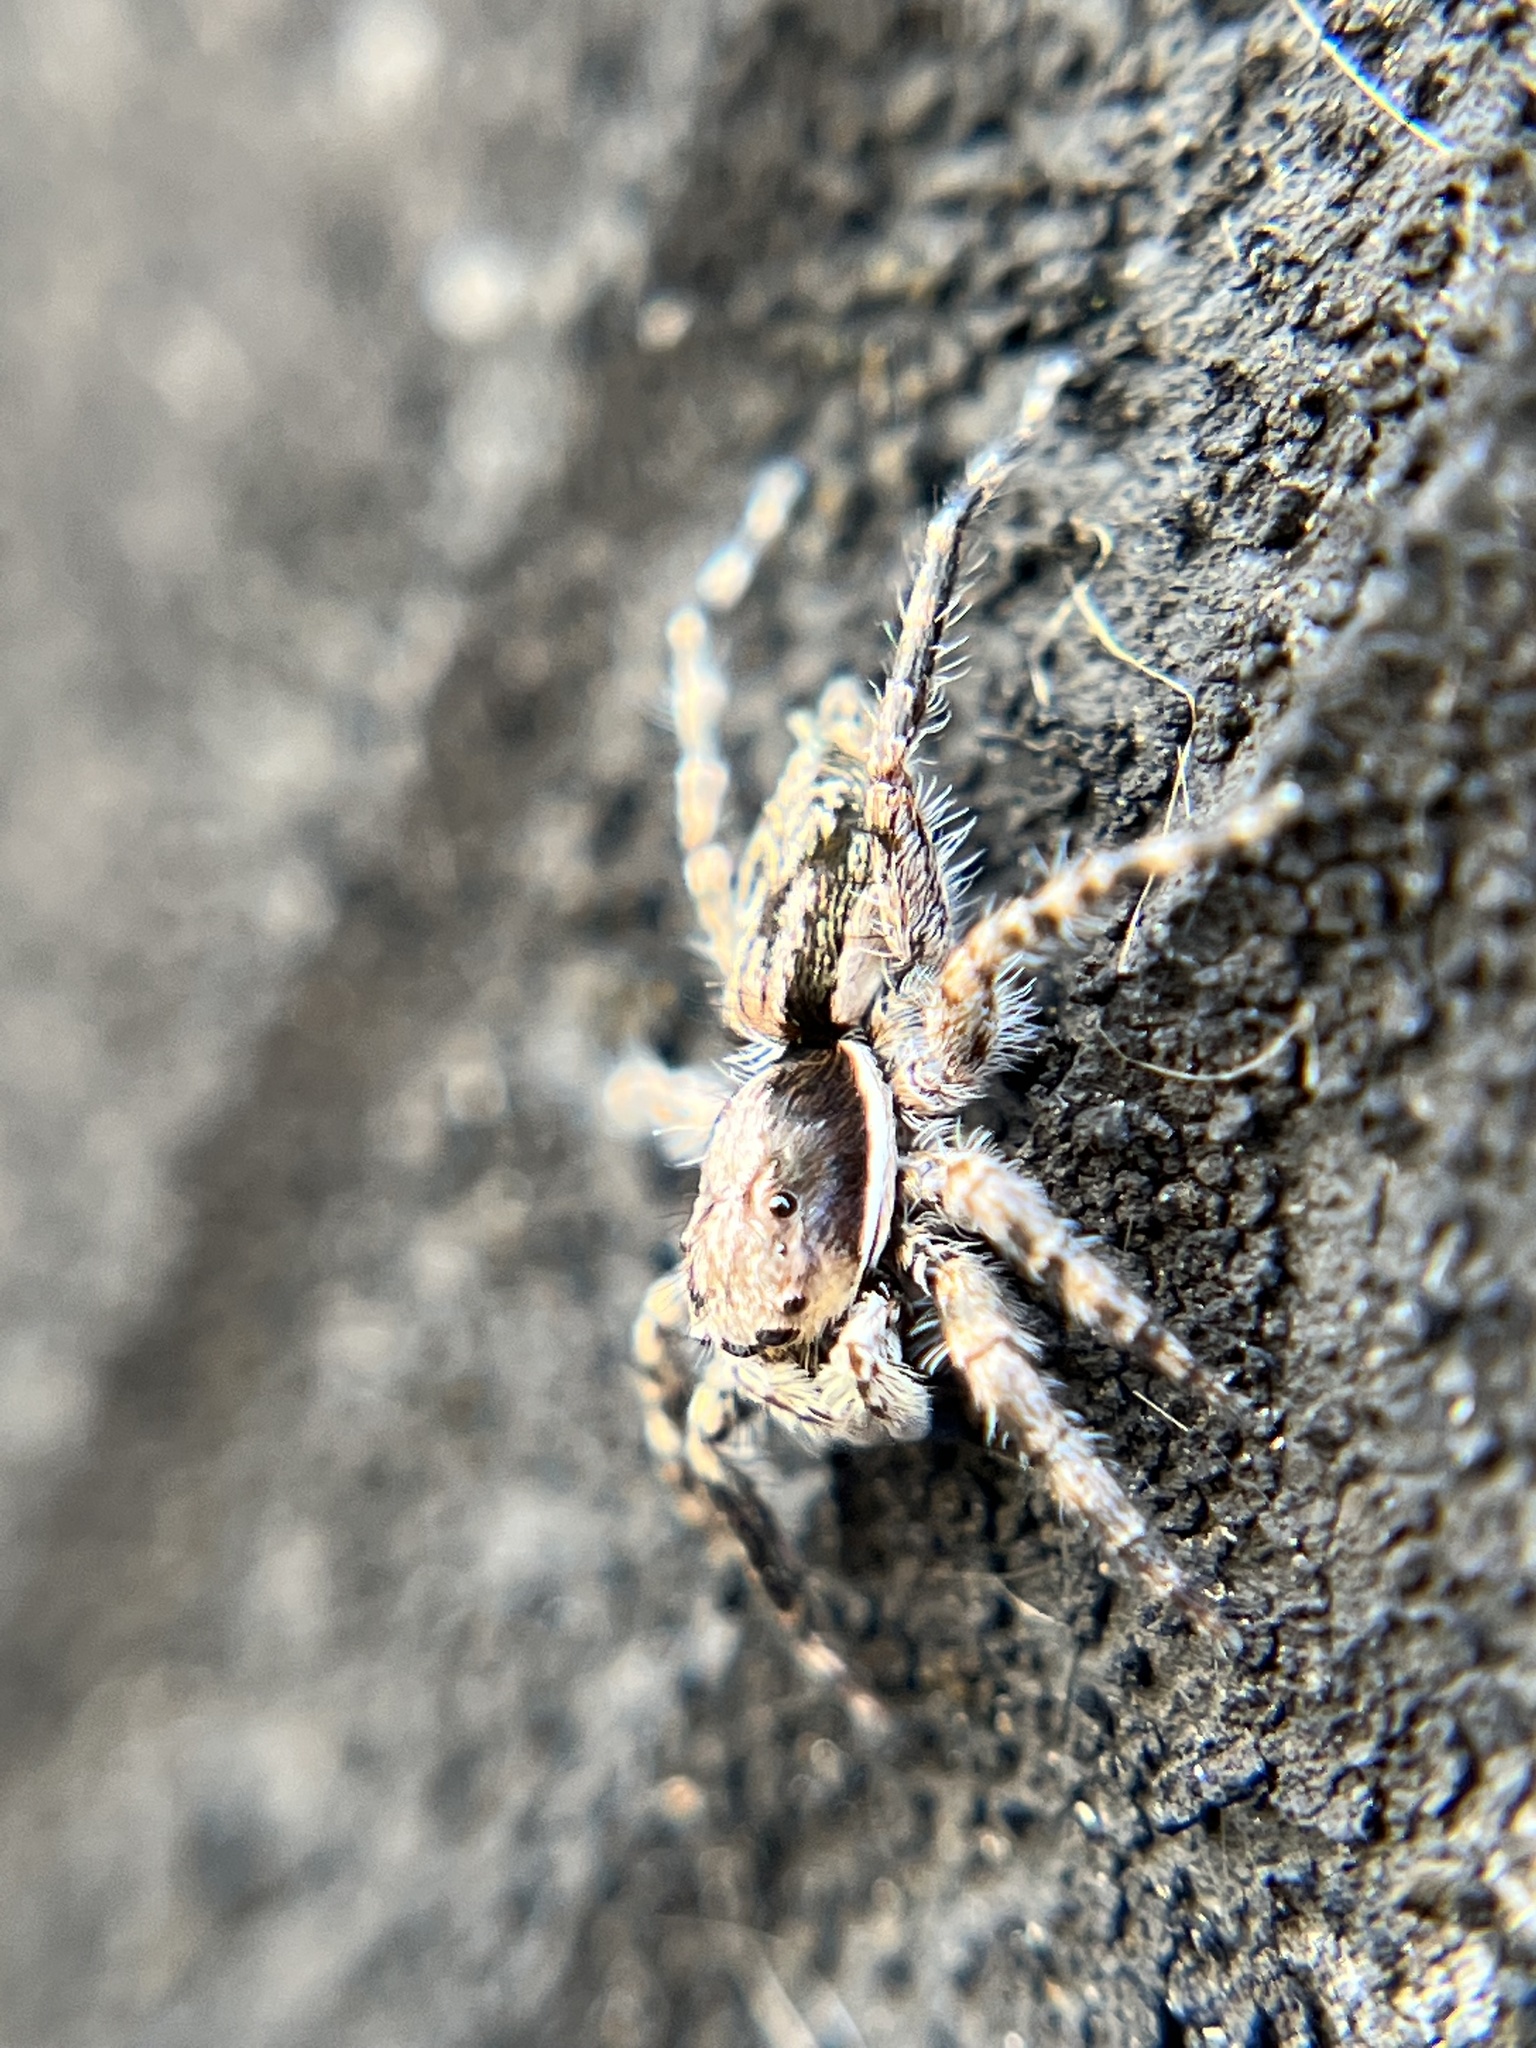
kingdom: Animalia
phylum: Arthropoda
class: Arachnida
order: Araneae
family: Salticidae
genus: Menemerus
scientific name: Menemerus bivittatus
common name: Gray wall jumper
